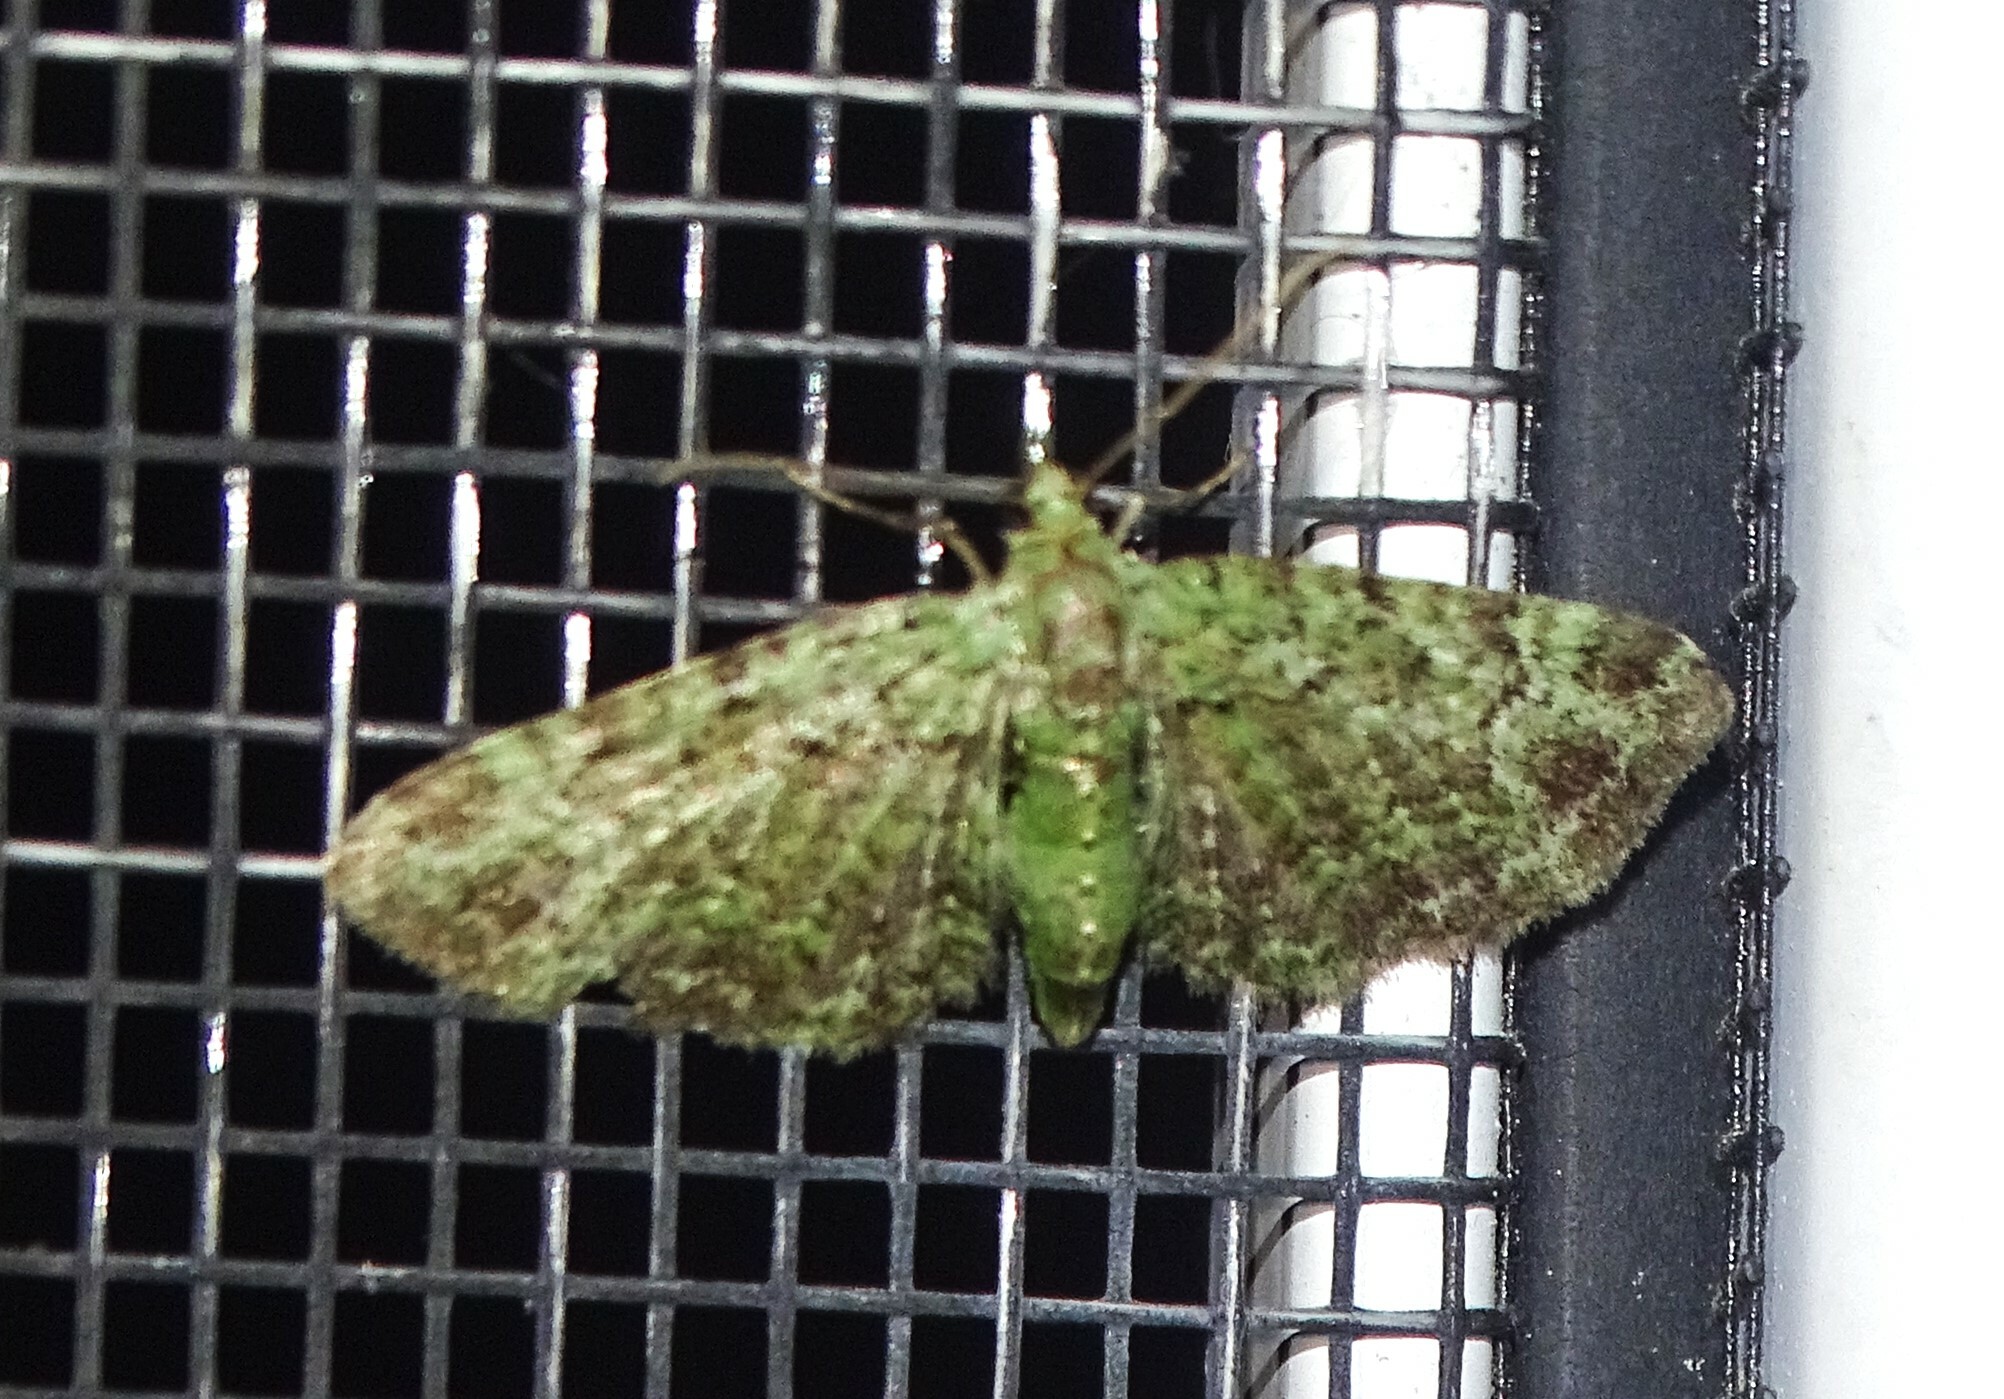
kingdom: Animalia
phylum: Arthropoda
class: Insecta
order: Lepidoptera
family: Geometridae
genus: Pasiphila
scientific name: Pasiphila rectangulata
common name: Green pug
